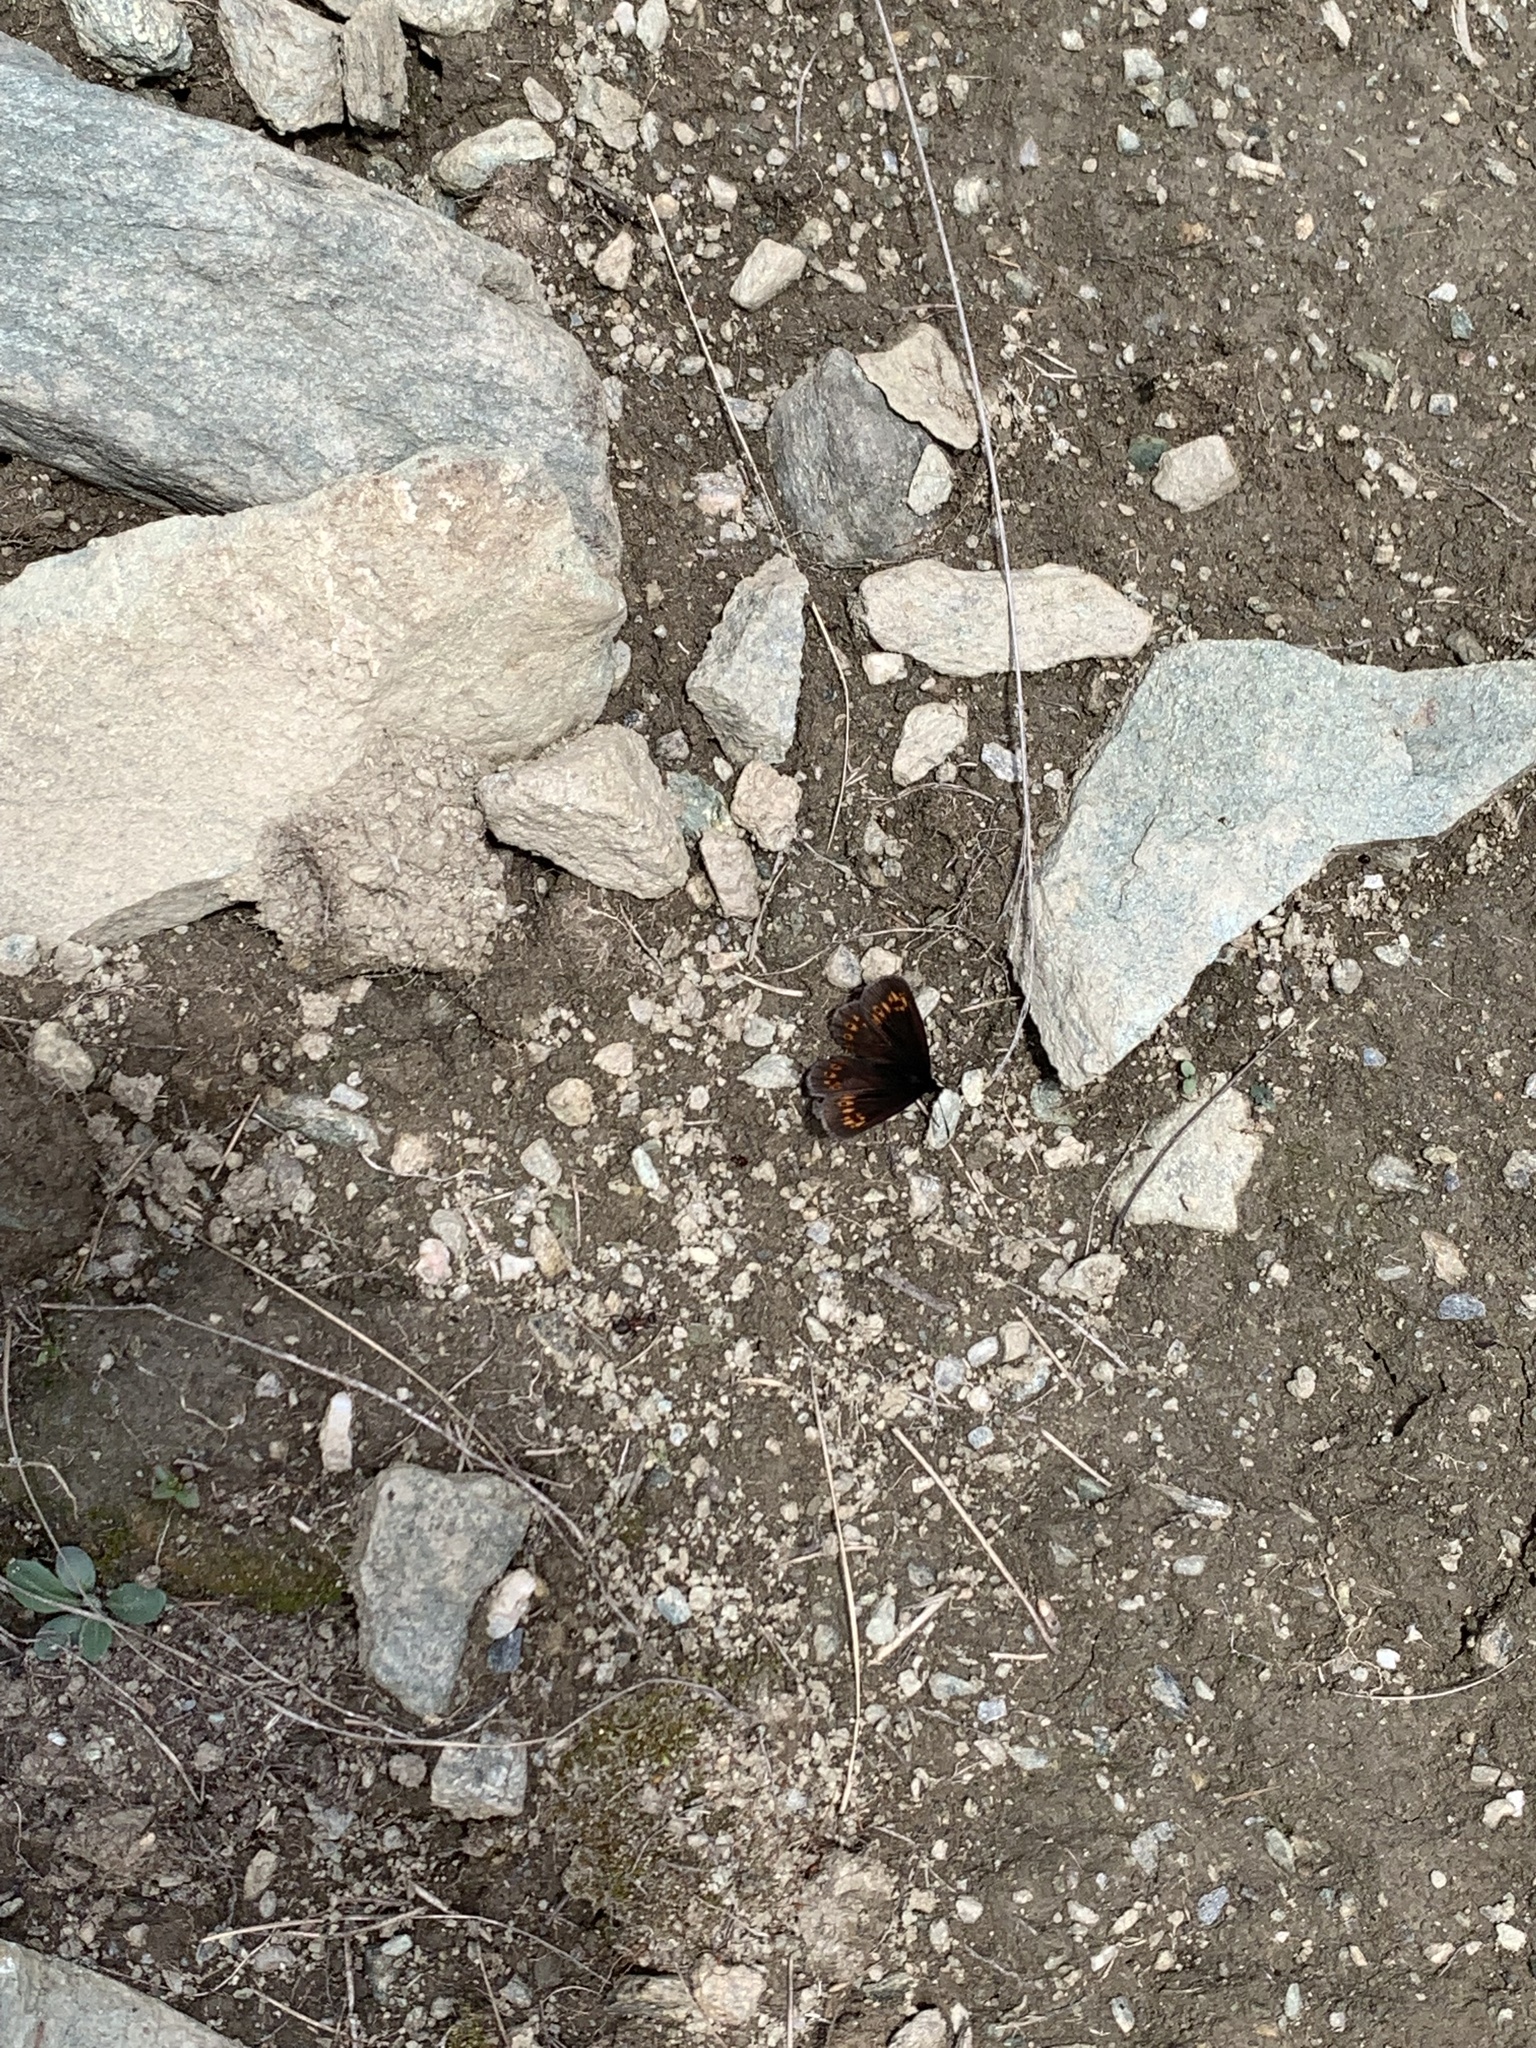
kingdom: Animalia
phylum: Arthropoda
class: Insecta
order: Lepidoptera
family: Nymphalidae
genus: Erebia
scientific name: Erebia alberganus
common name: Almond-eyed ringlet
